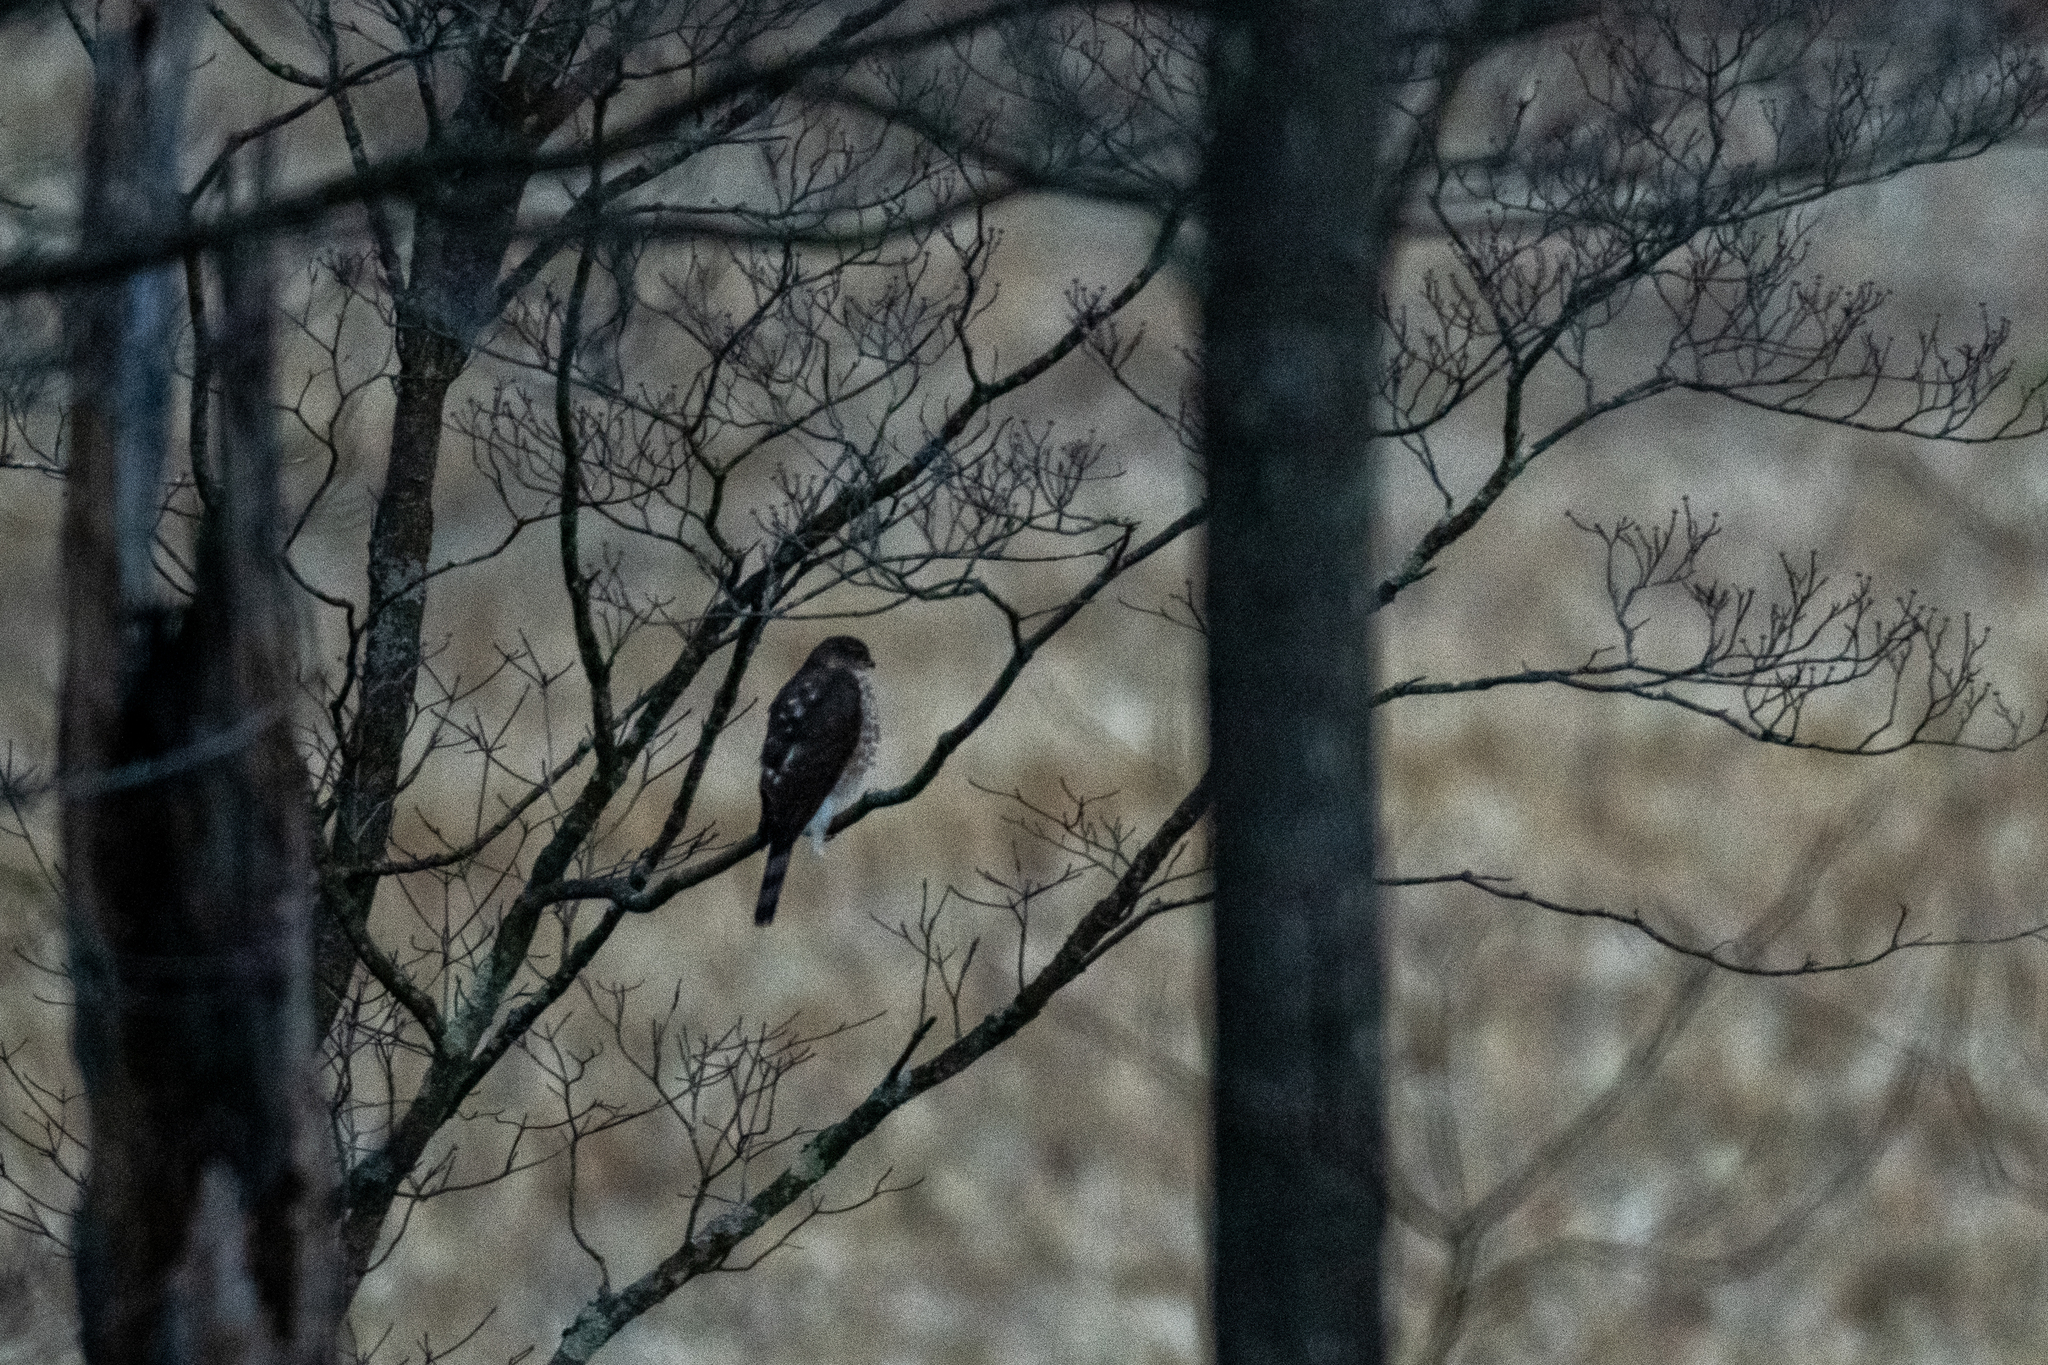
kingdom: Animalia
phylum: Chordata
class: Aves
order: Accipitriformes
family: Accipitridae
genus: Accipiter
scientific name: Accipiter striatus
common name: Sharp-shinned hawk
